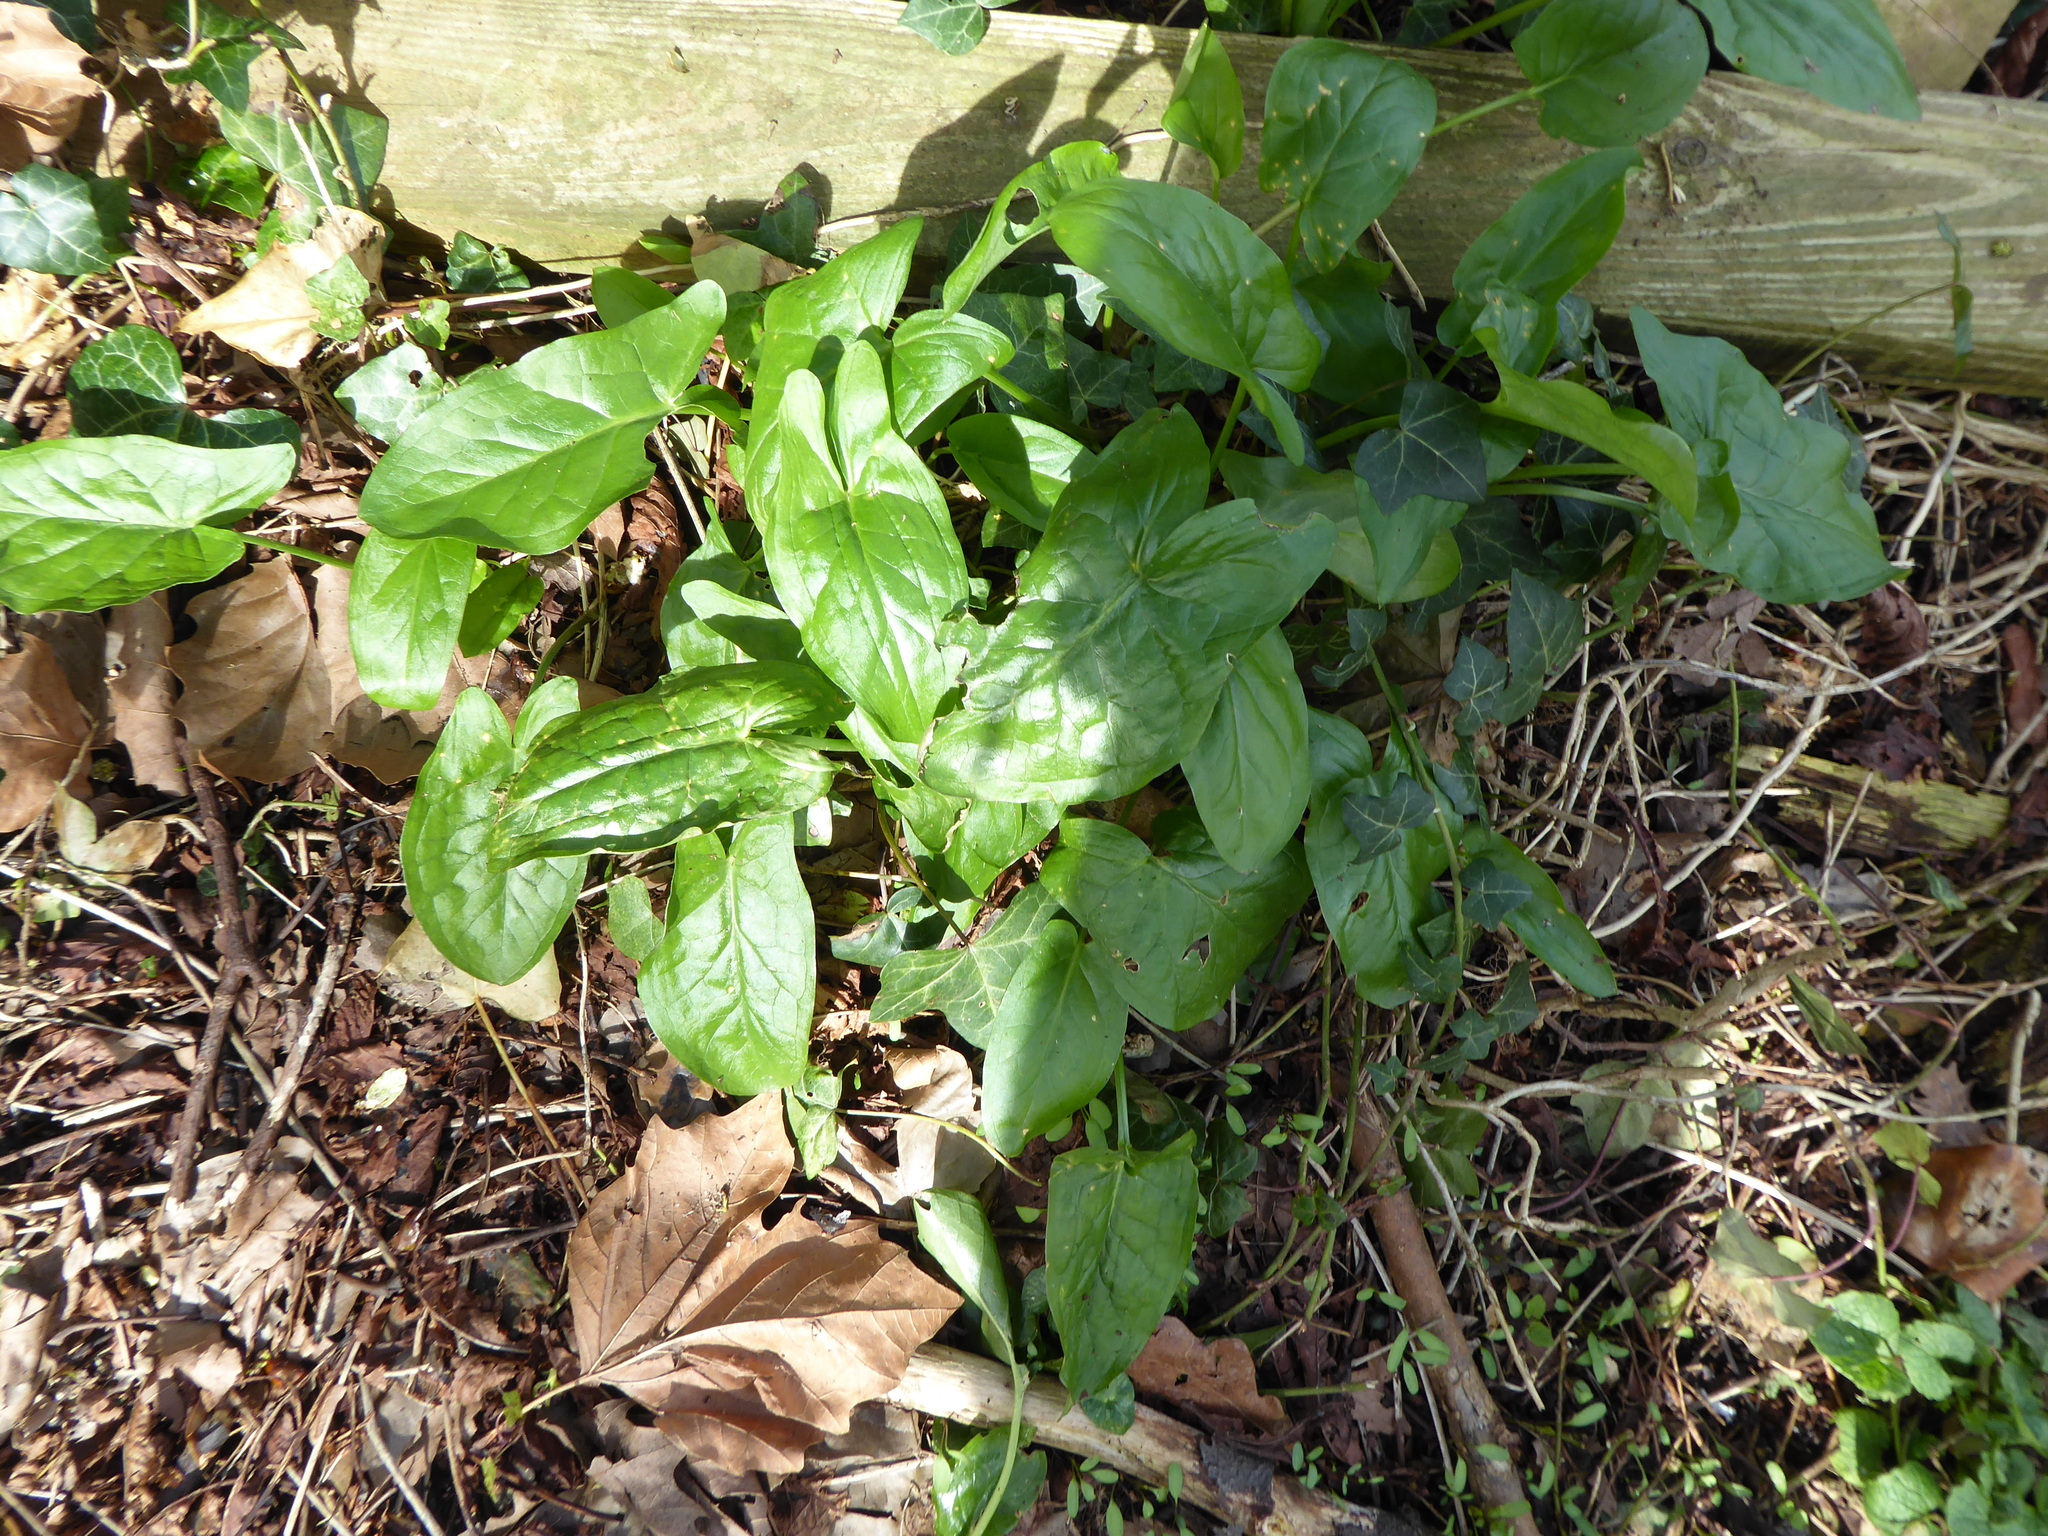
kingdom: Plantae
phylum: Tracheophyta
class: Liliopsida
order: Alismatales
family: Araceae
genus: Arum
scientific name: Arum maculatum
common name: Lords-and-ladies
